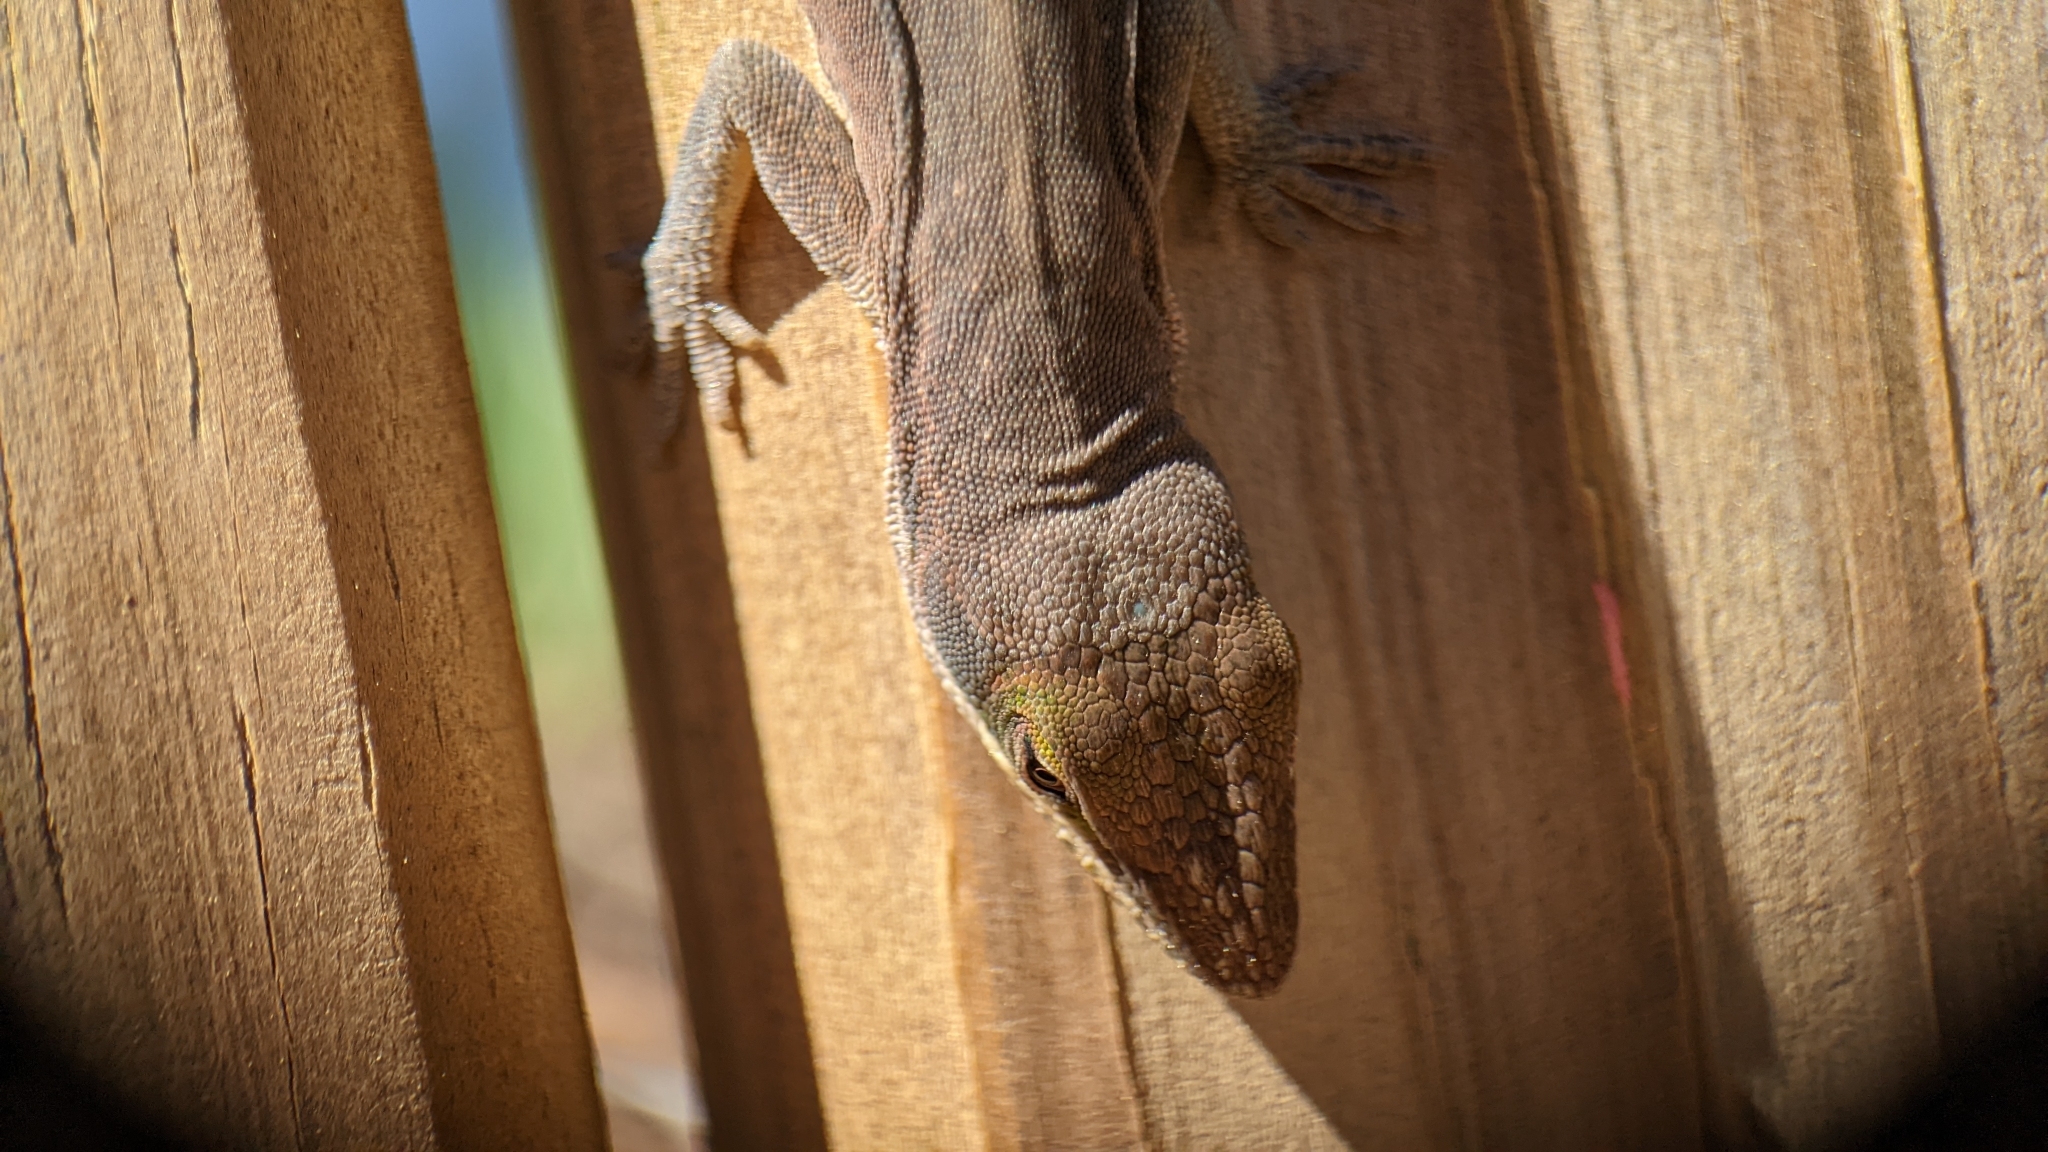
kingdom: Animalia
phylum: Chordata
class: Squamata
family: Dactyloidae
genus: Anolis
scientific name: Anolis carolinensis
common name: Green anole
